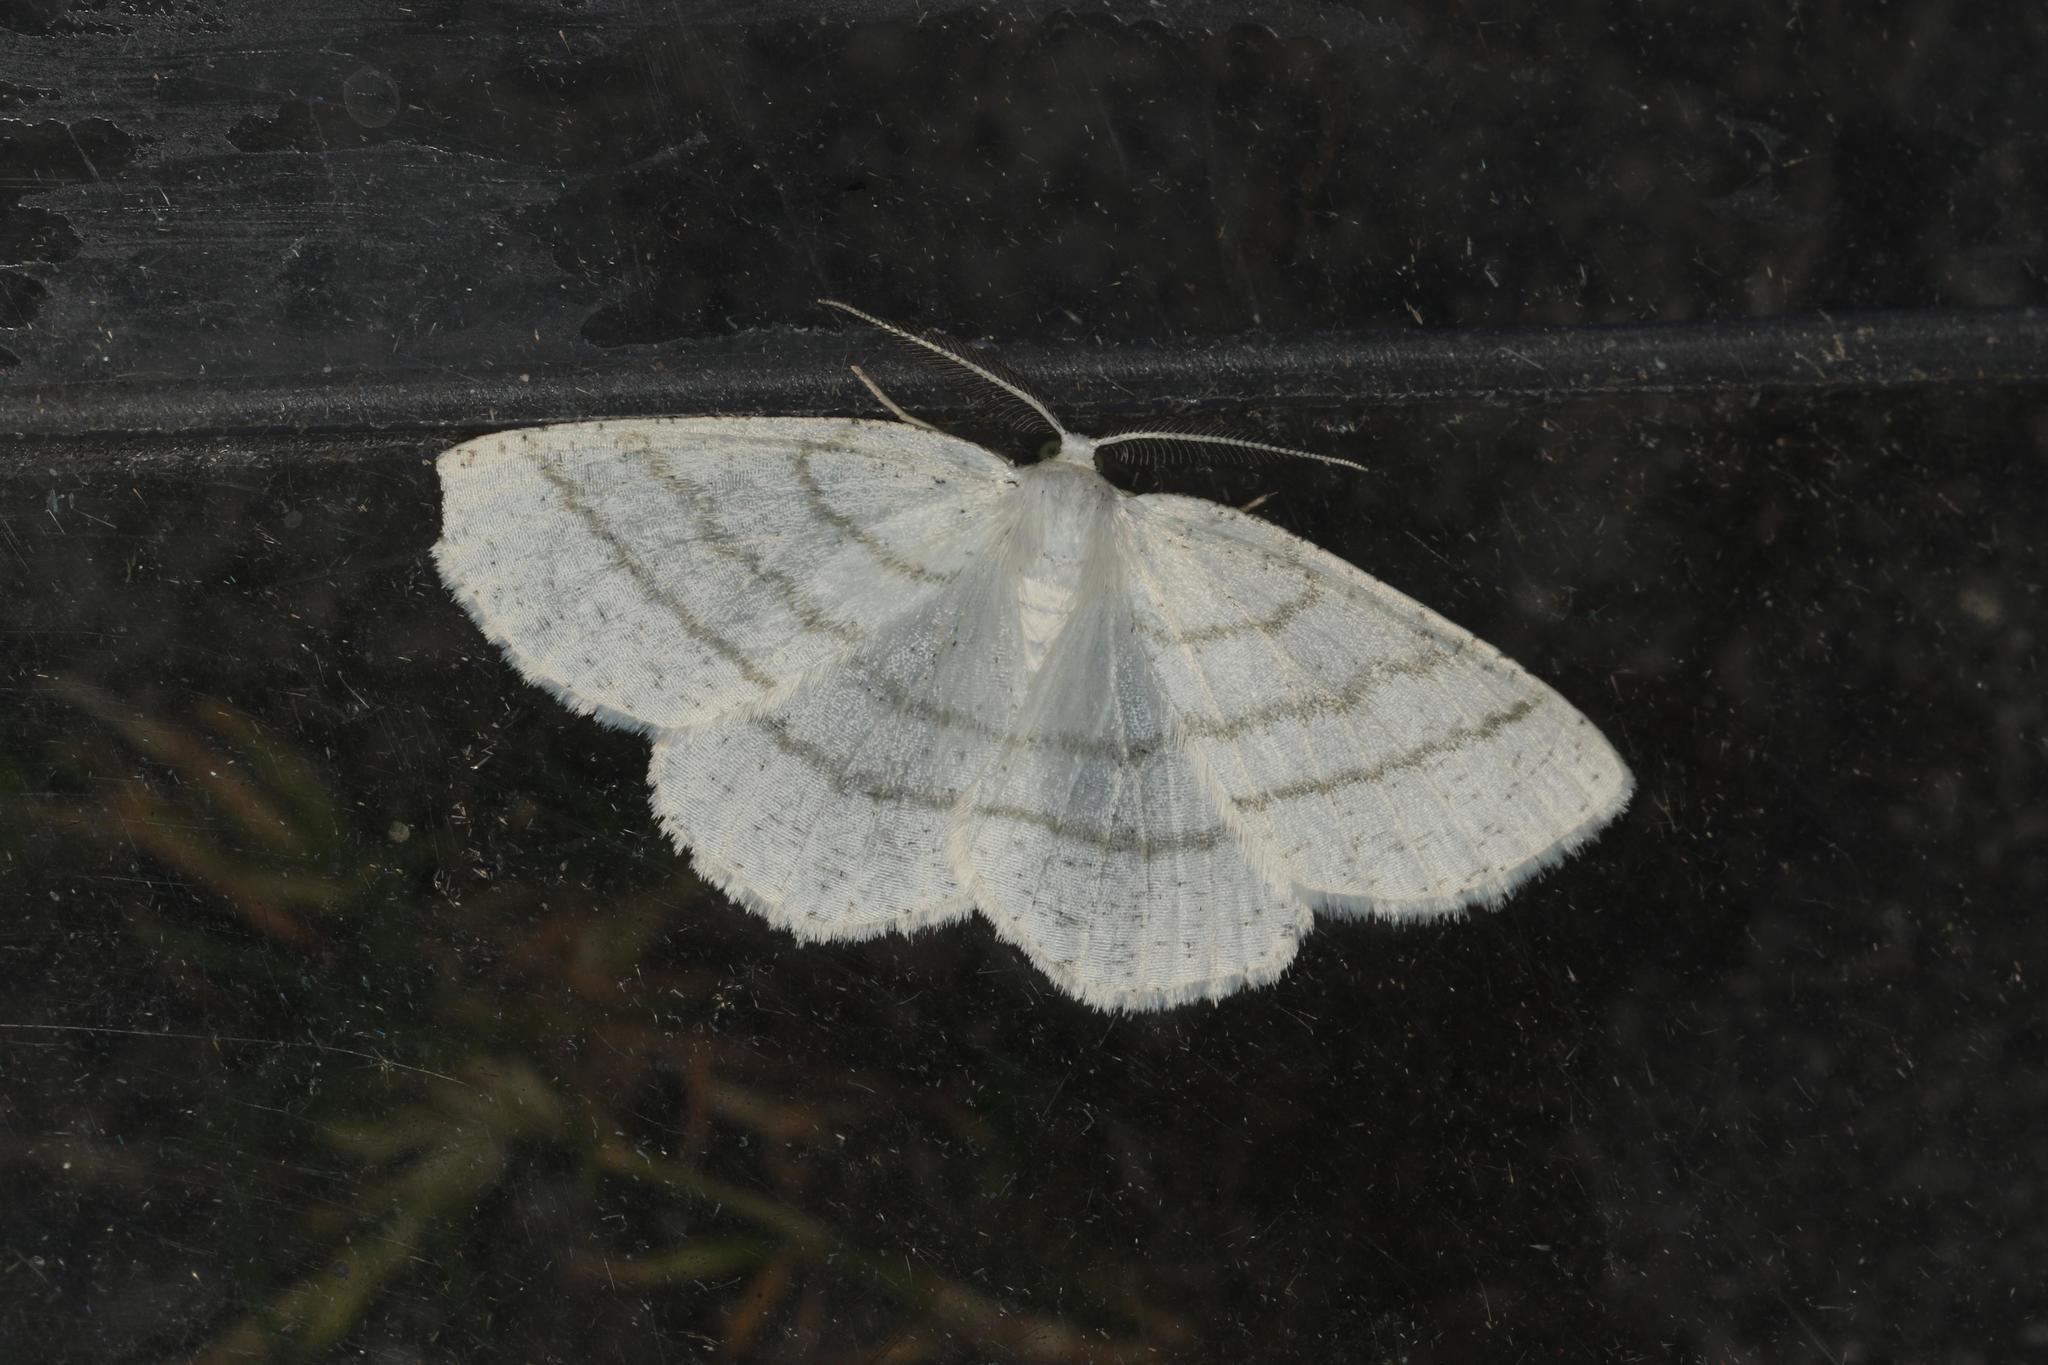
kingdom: Animalia
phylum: Arthropoda
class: Insecta
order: Lepidoptera
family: Geometridae
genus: Cabera
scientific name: Cabera pusaria
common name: Common white wave
